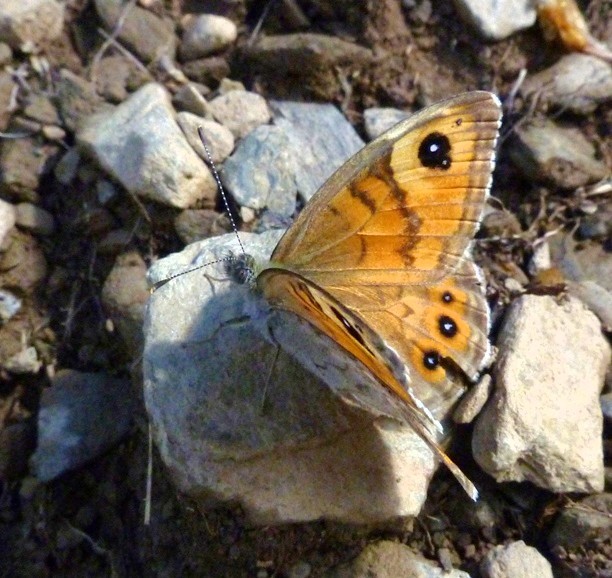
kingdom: Animalia
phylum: Arthropoda
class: Insecta
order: Lepidoptera
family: Nymphalidae
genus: Pararge
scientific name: Pararge Lasiommata maera
